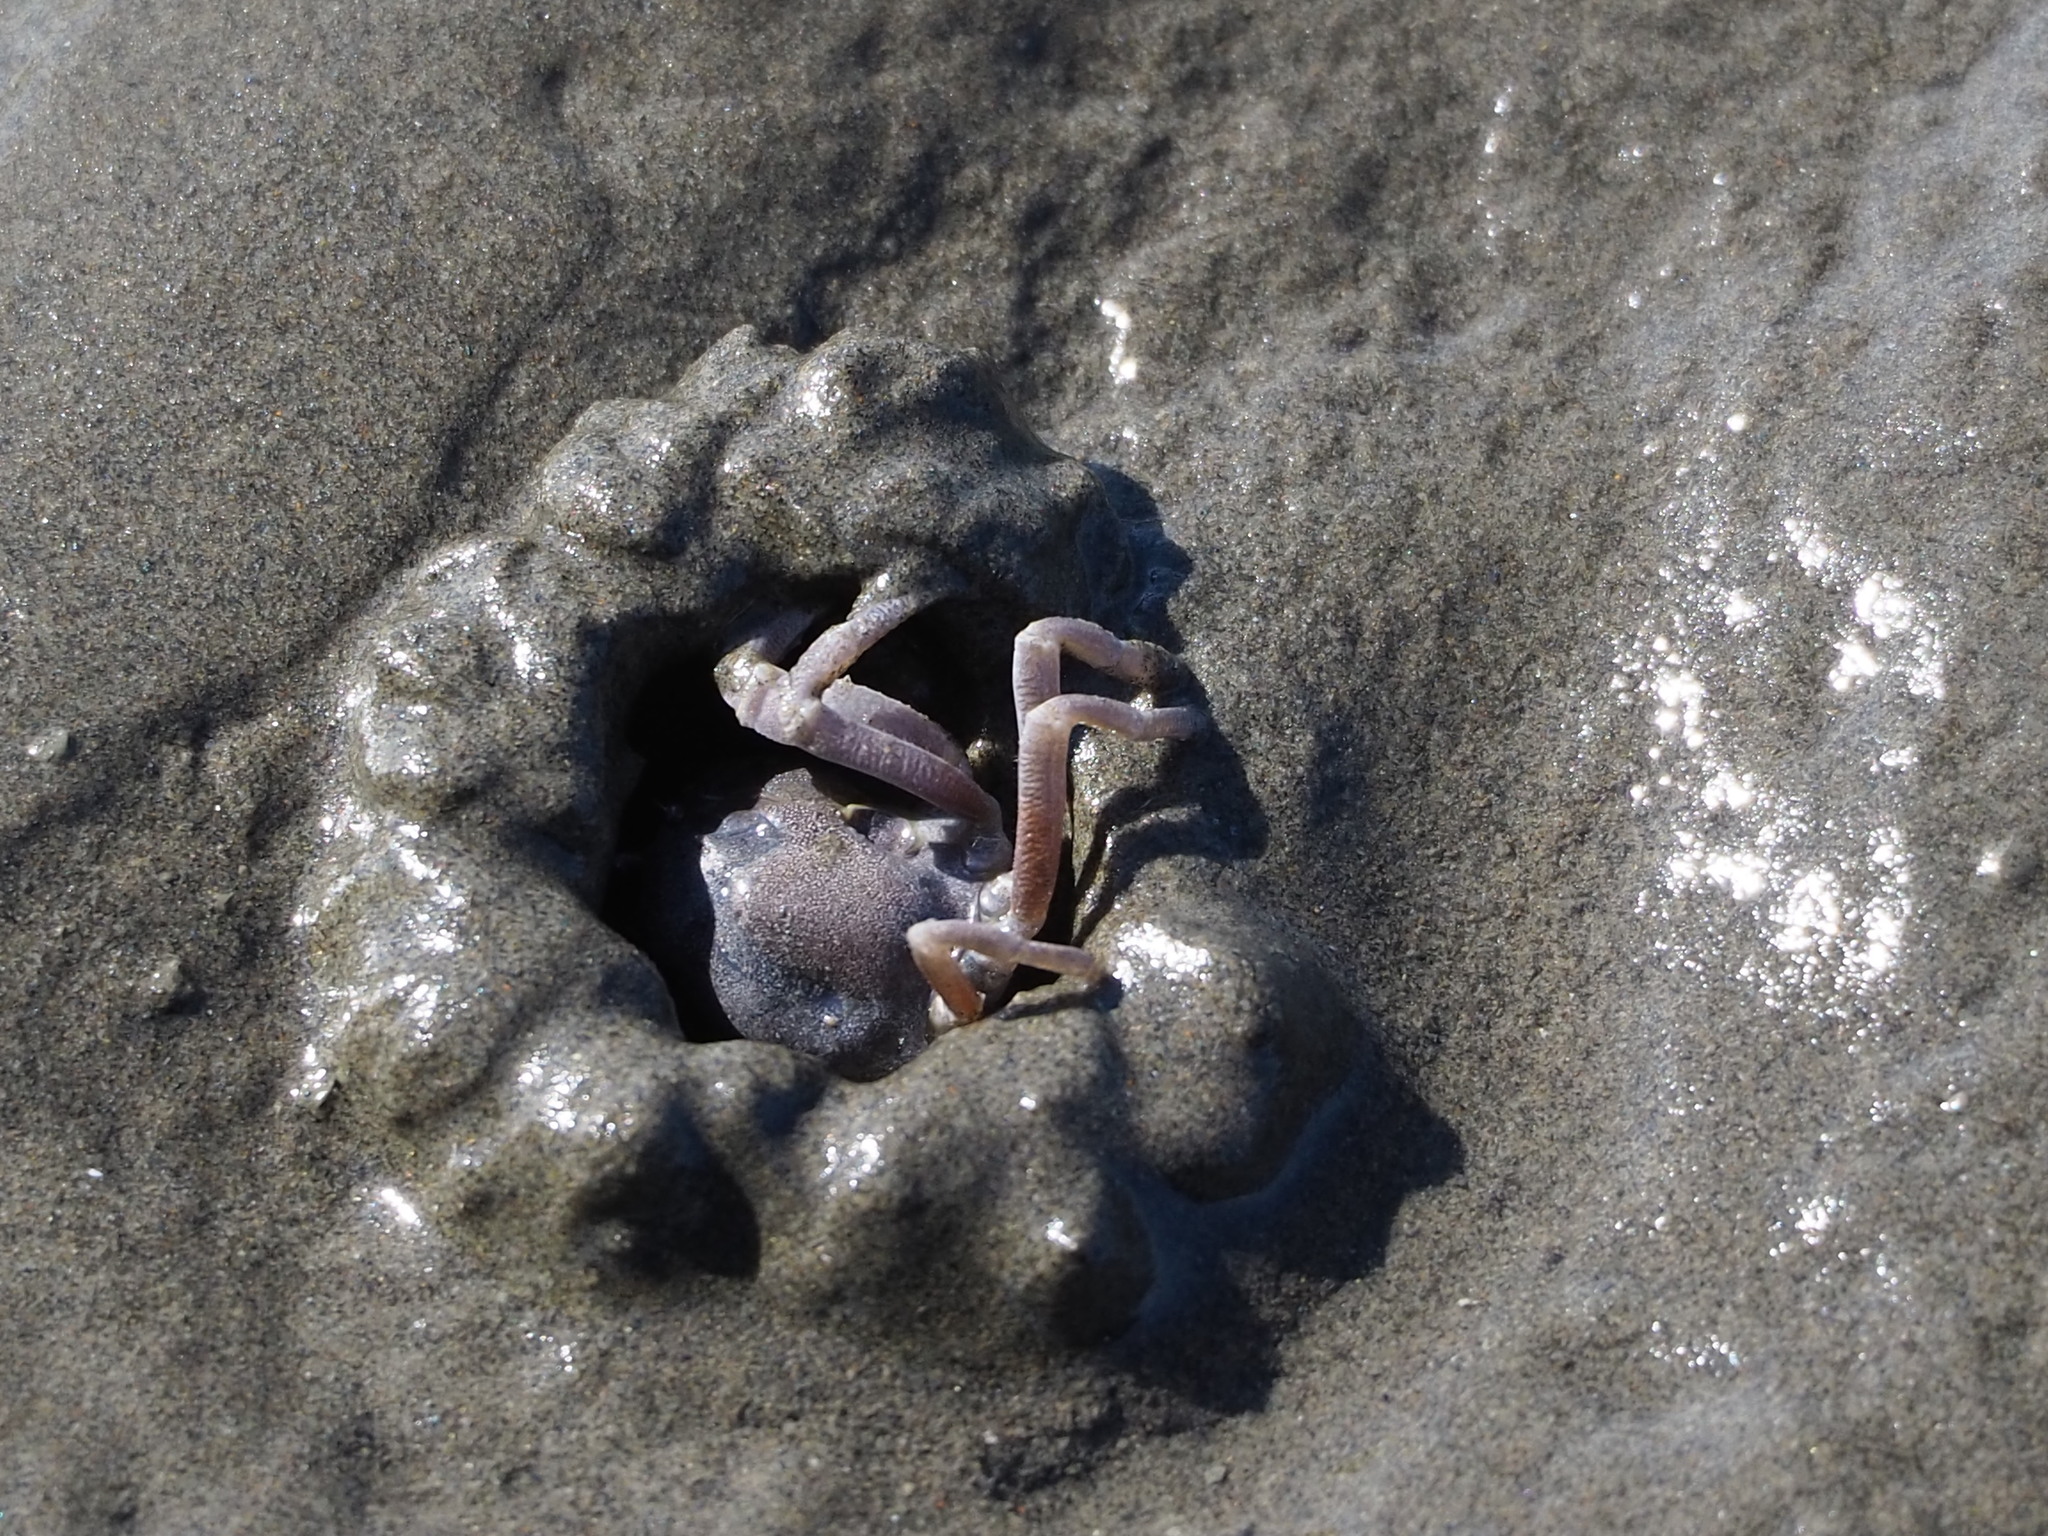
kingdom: Animalia
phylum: Arthropoda
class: Malacostraca
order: Decapoda
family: Mictyridae
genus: Mictyris
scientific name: Mictyris brevidactylus
